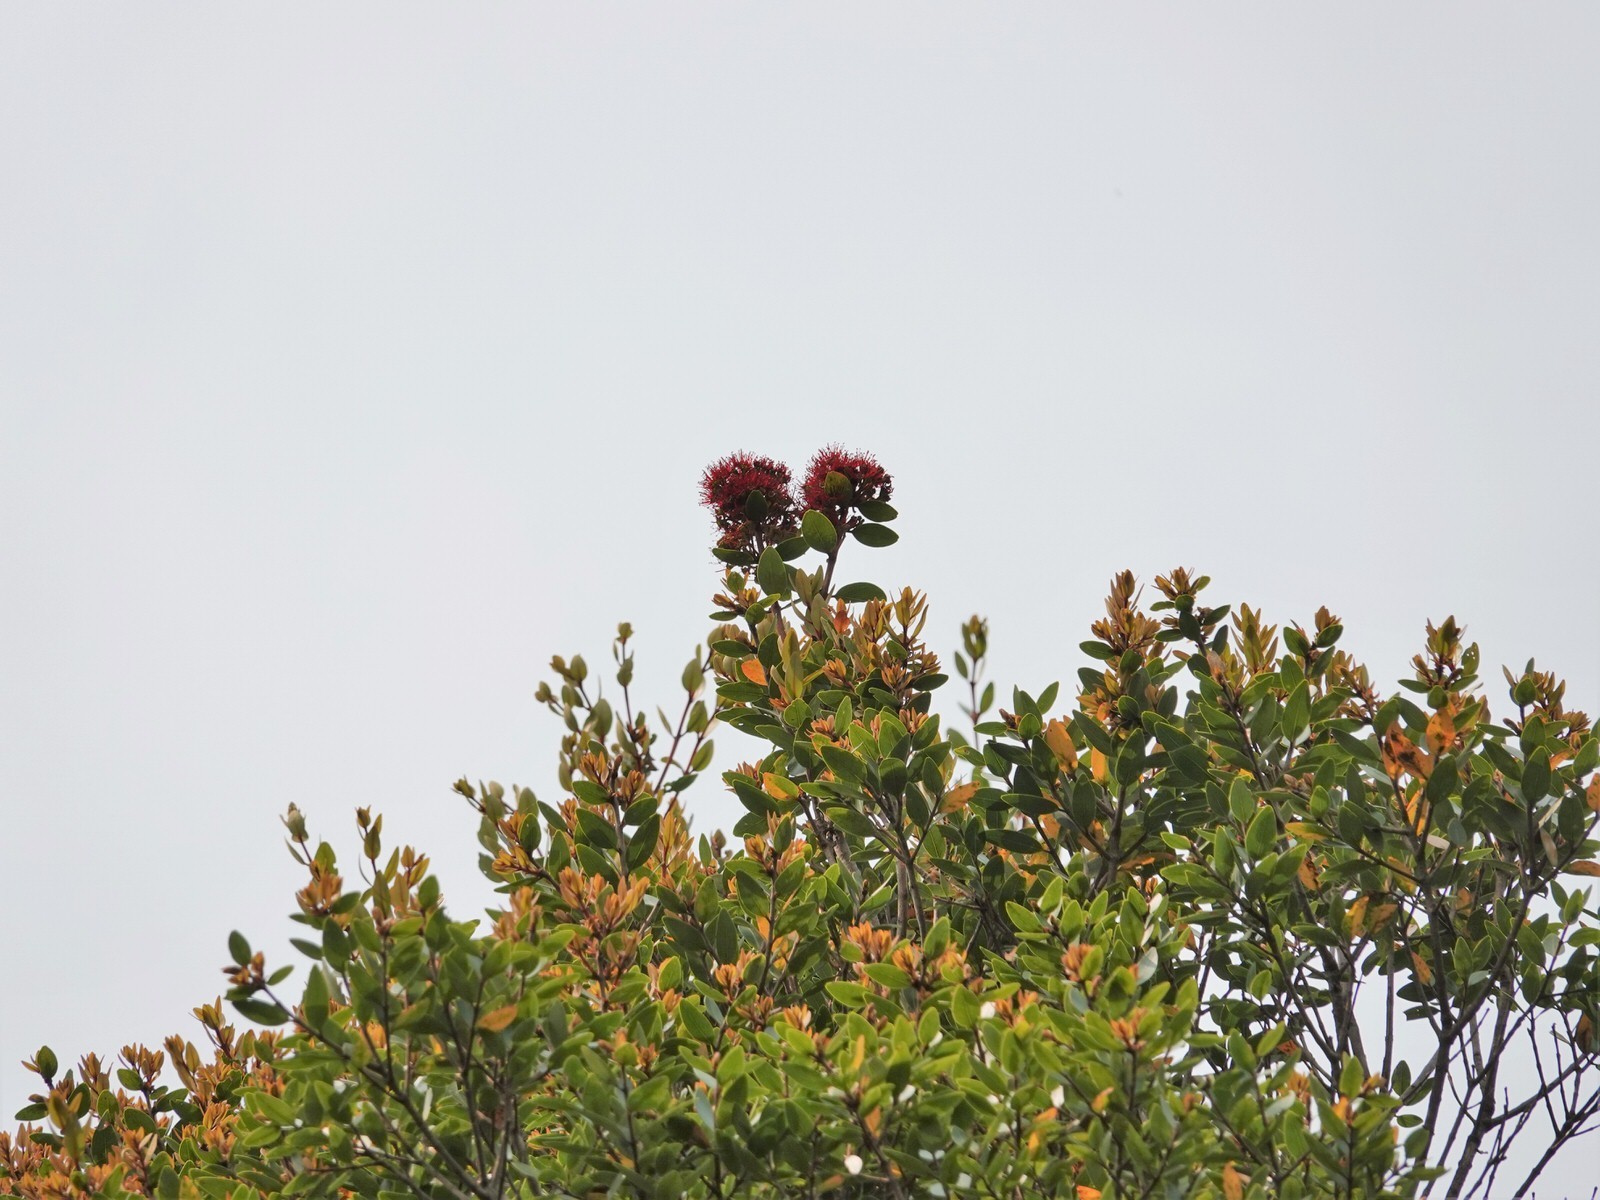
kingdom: Plantae
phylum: Tracheophyta
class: Magnoliopsida
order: Myrtales
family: Myrtaceae
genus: Metrosideros
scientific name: Metrosideros robusta
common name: Northern rata
